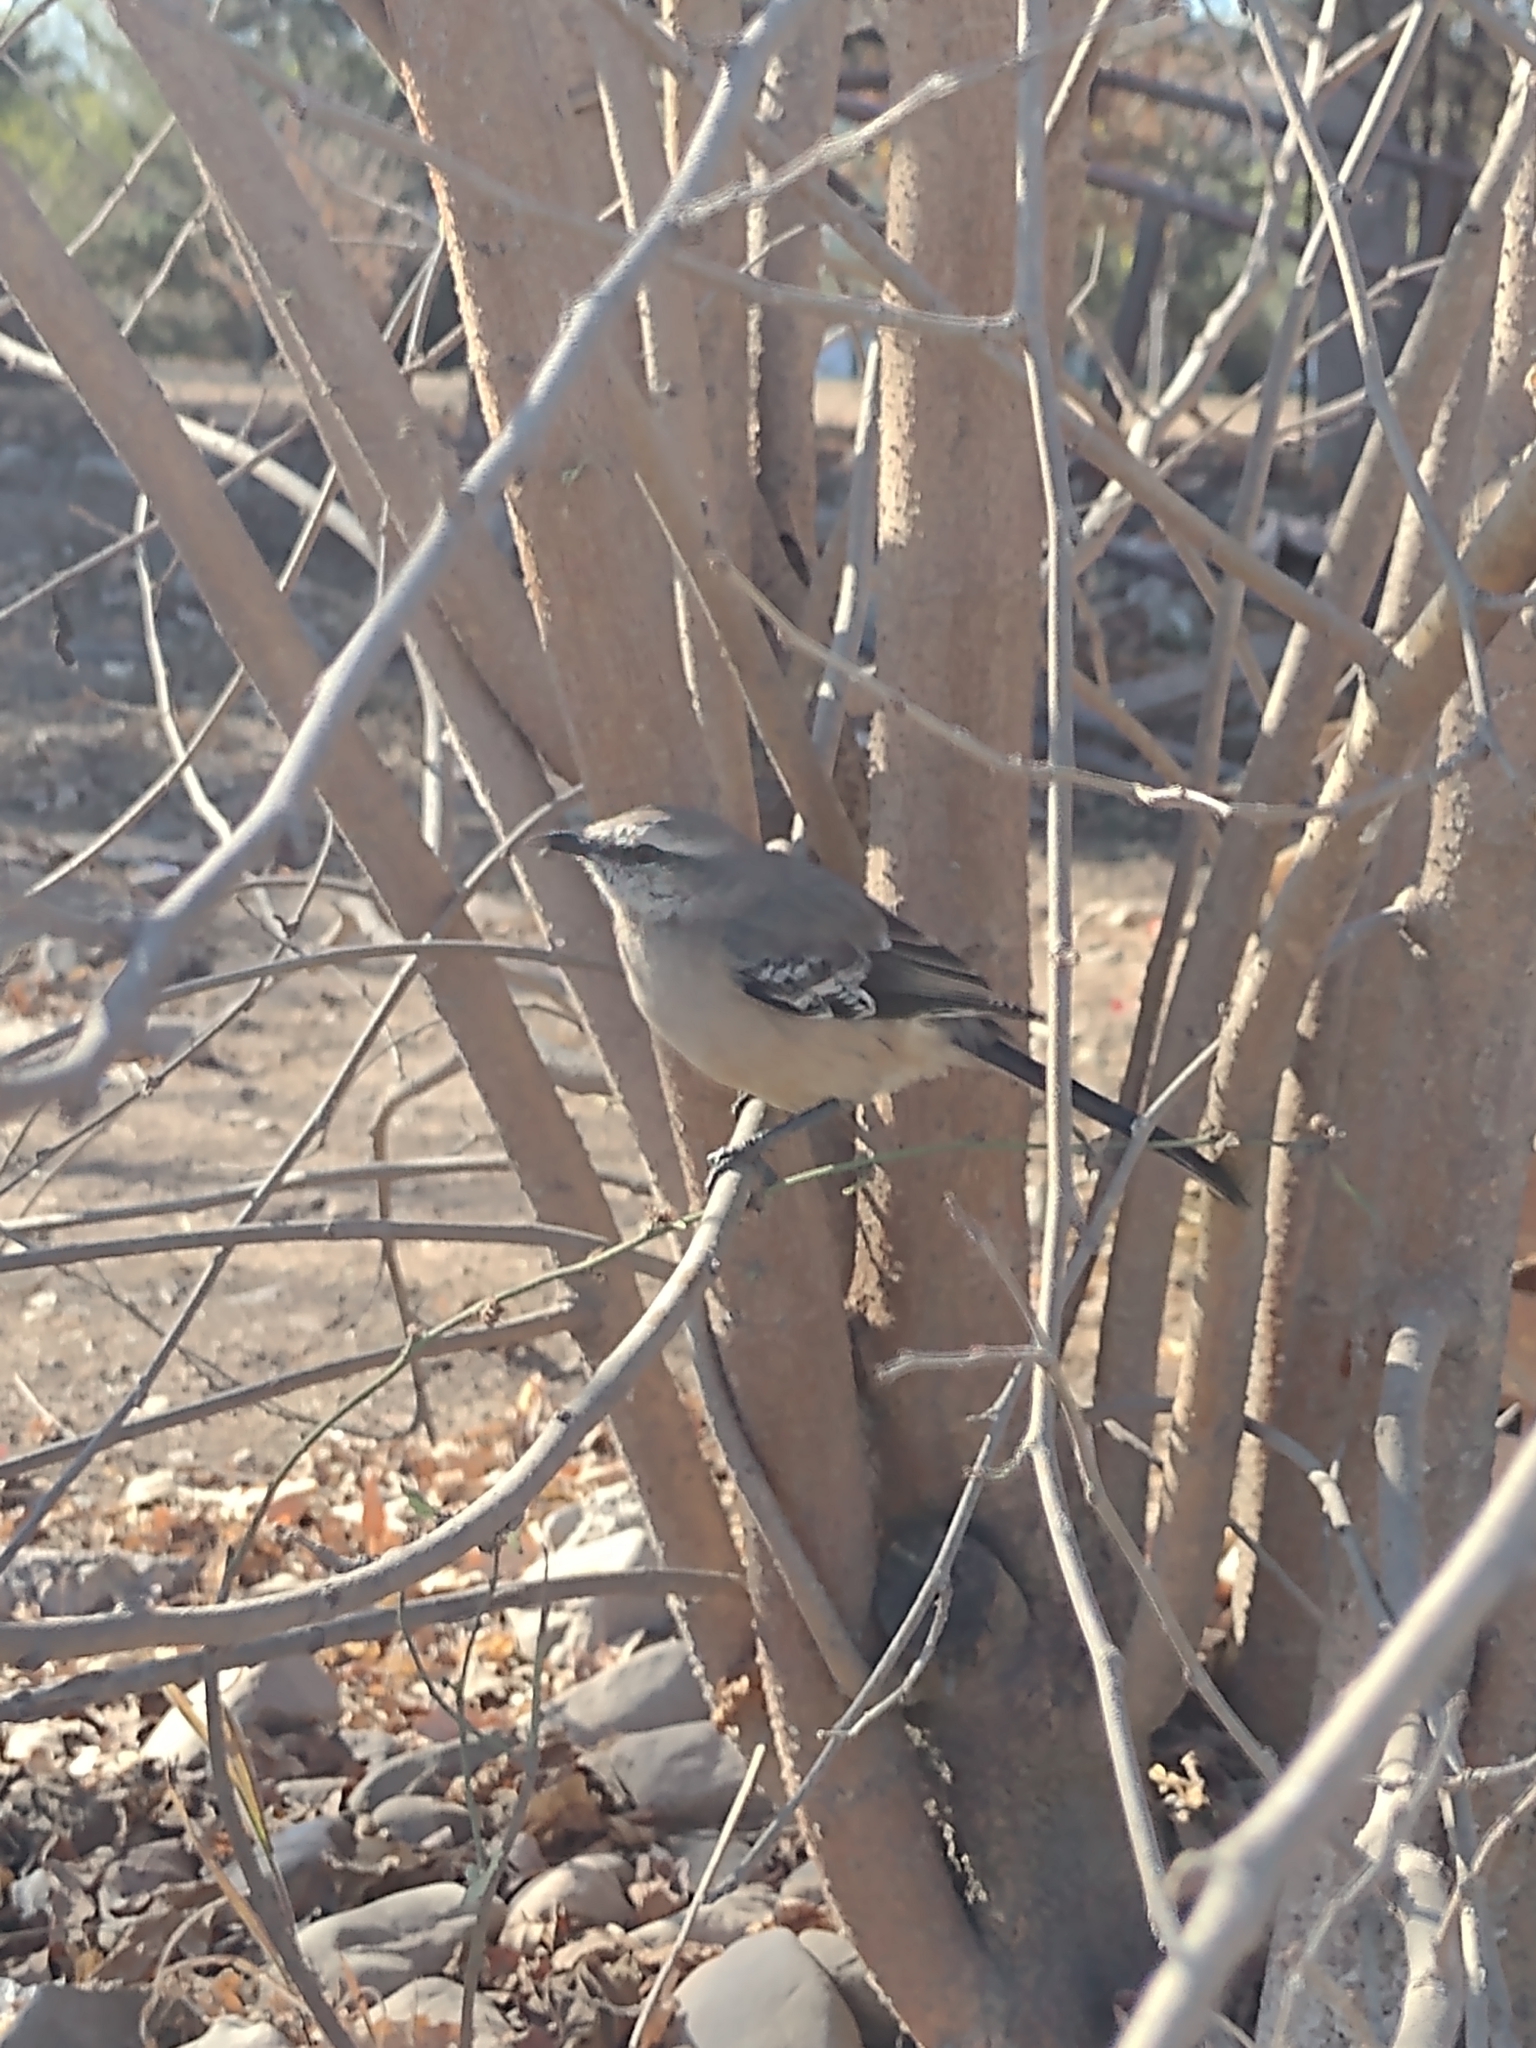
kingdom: Animalia
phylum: Chordata
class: Aves
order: Passeriformes
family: Mimidae
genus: Mimus
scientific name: Mimus patagonicus
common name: Patagonian mockingbird
